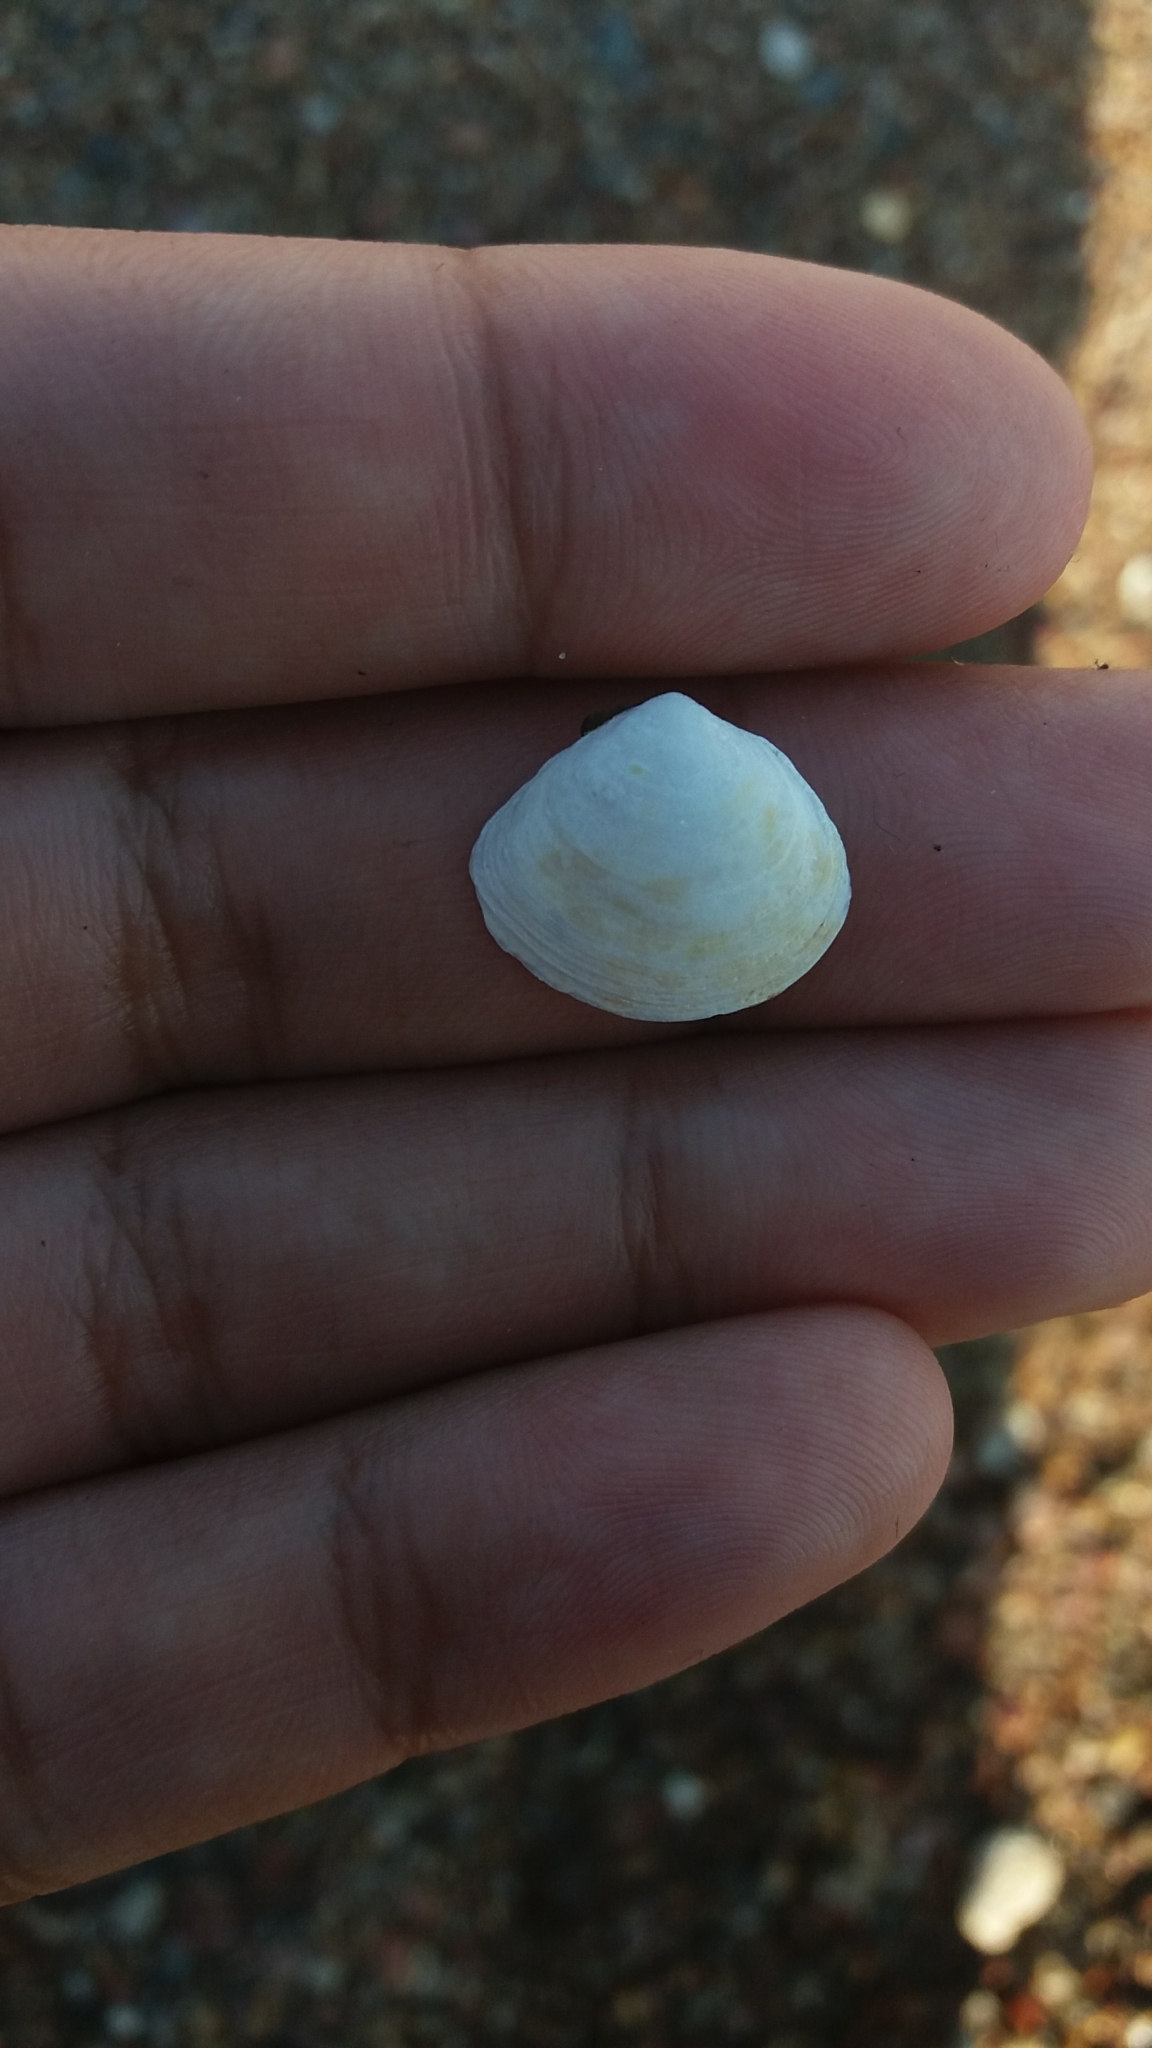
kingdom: Animalia
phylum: Mollusca
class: Bivalvia
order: Cardiida
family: Tellinidae
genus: Macoma
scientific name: Macoma balthica
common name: Baltic tellin
